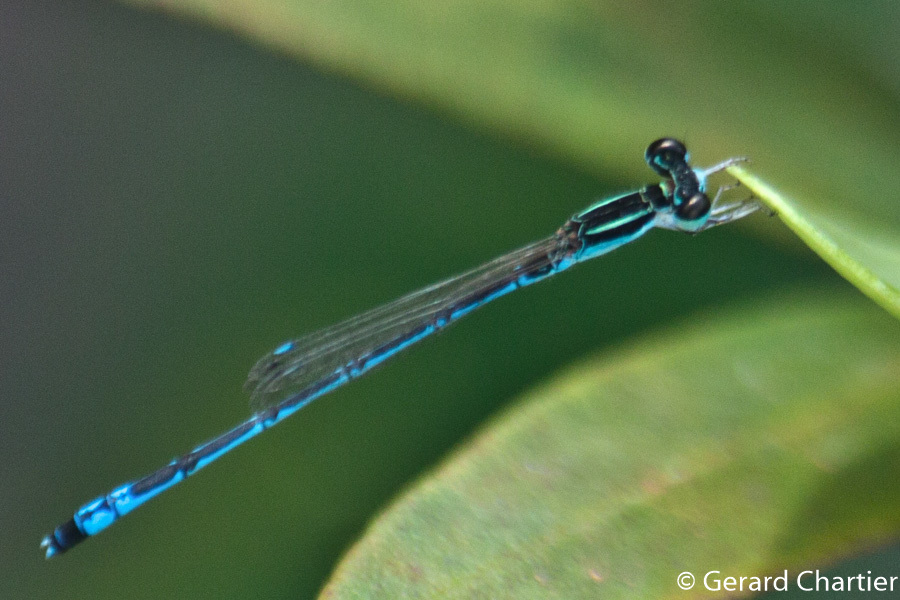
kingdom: Animalia
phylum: Arthropoda
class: Insecta
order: Odonata
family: Coenagrionidae
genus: Agriocnemis
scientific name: Agriocnemis nana
